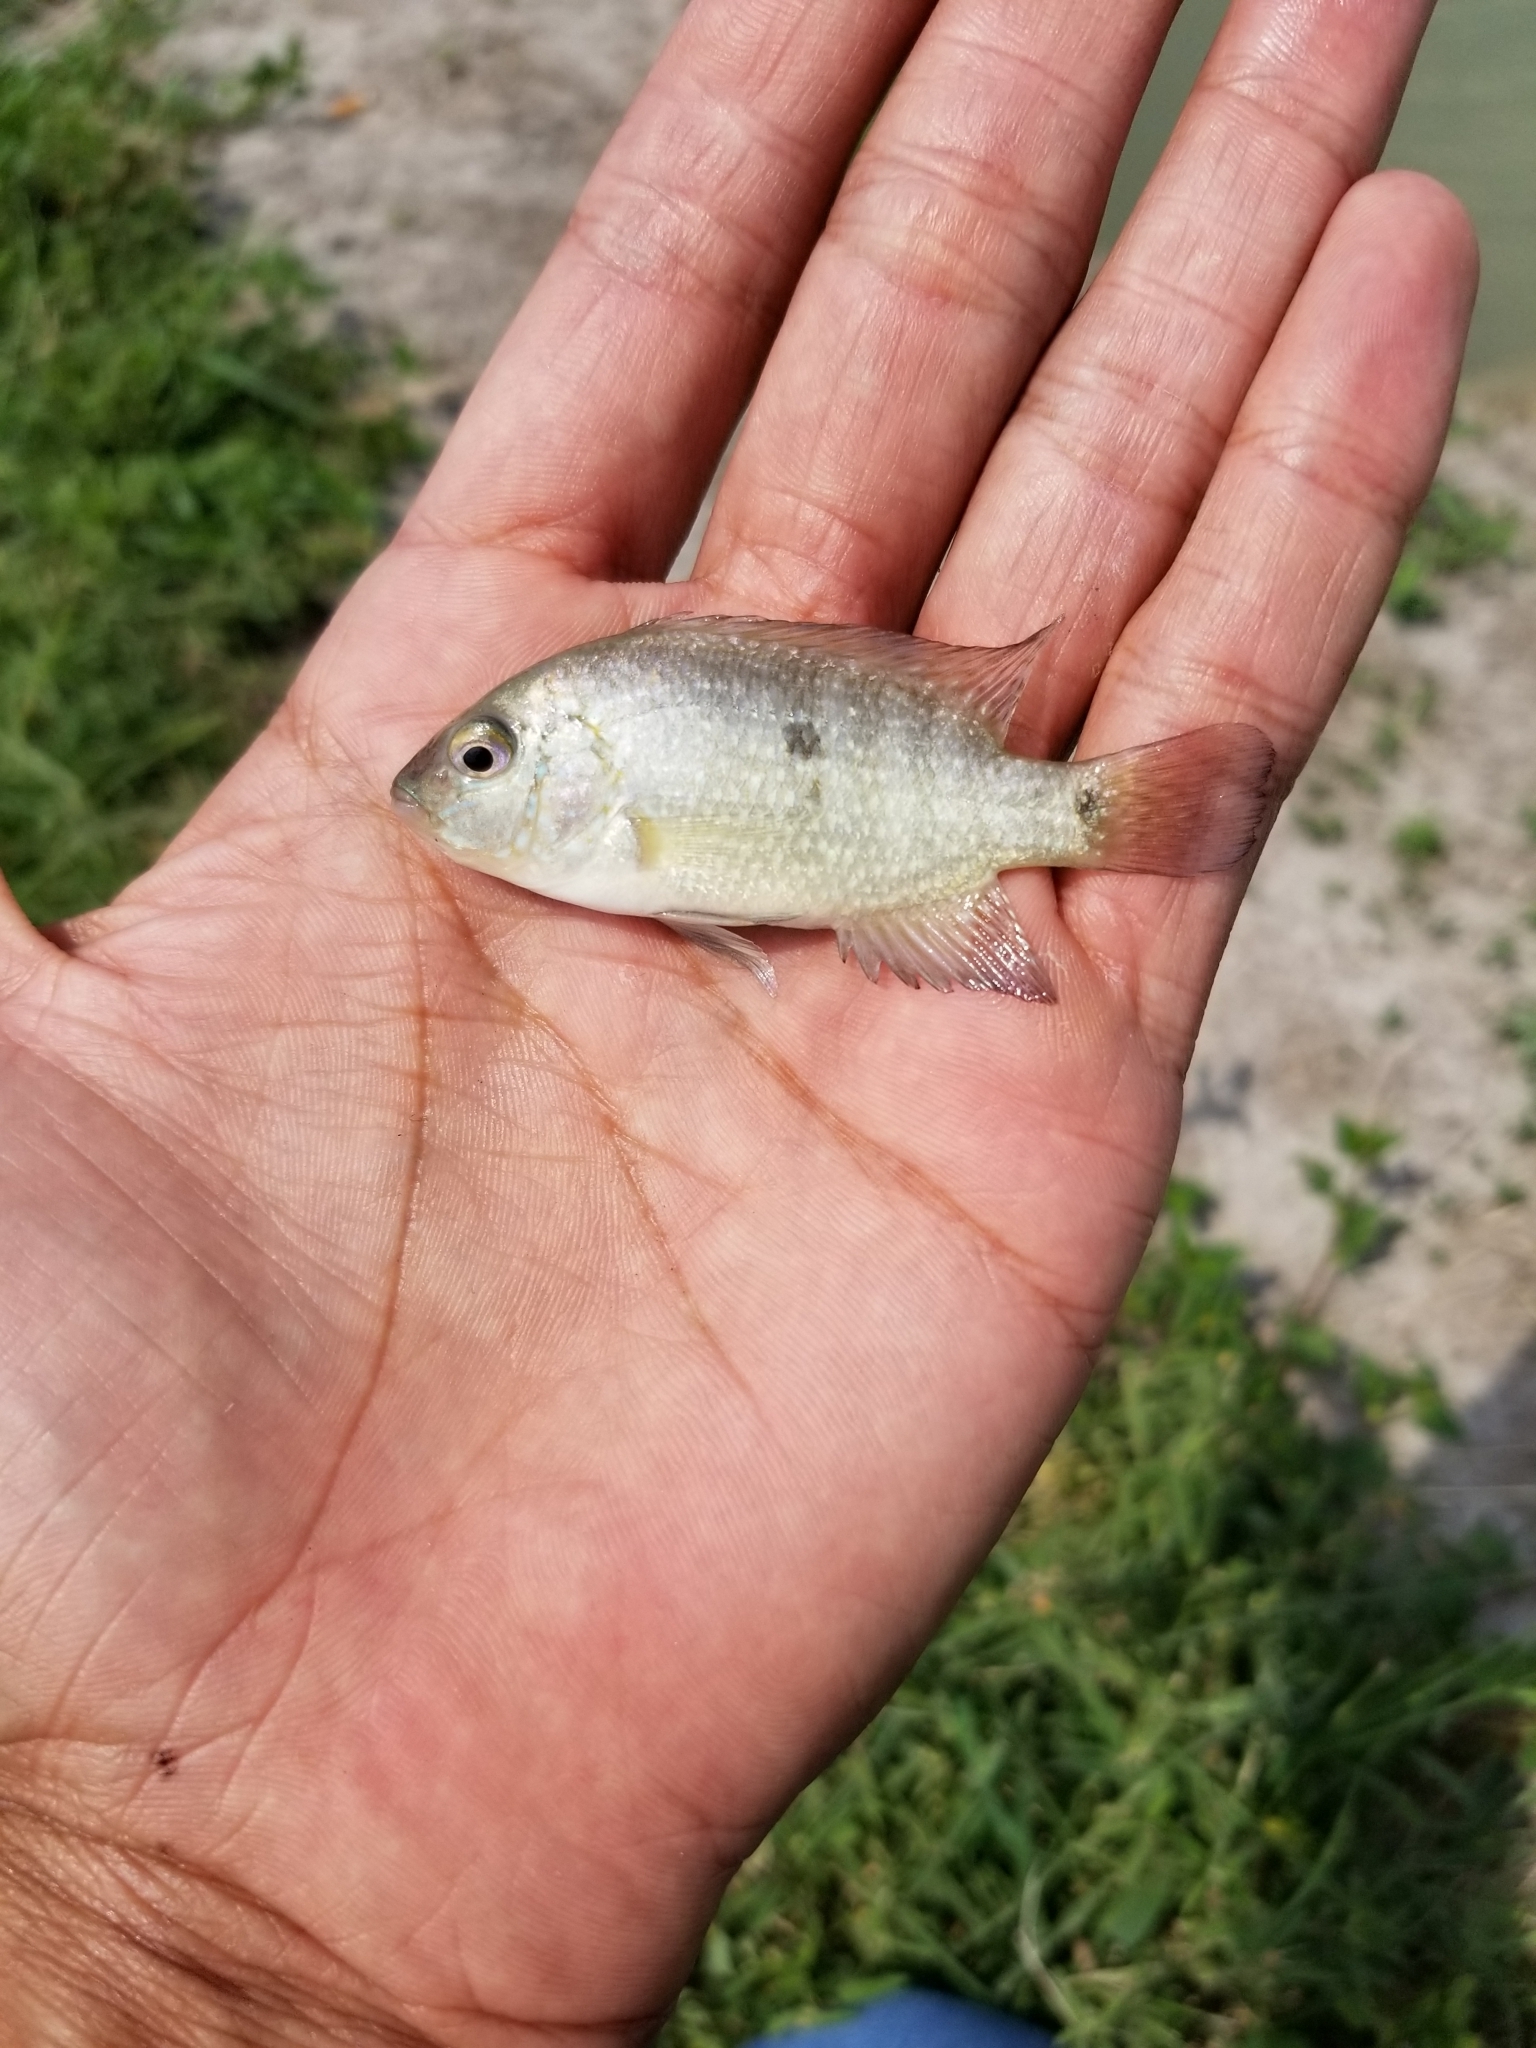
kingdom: Animalia
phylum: Chordata
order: Perciformes
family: Cichlidae
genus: Herichthys
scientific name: Herichthys cyanoguttatus
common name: Rio grande cichlid
